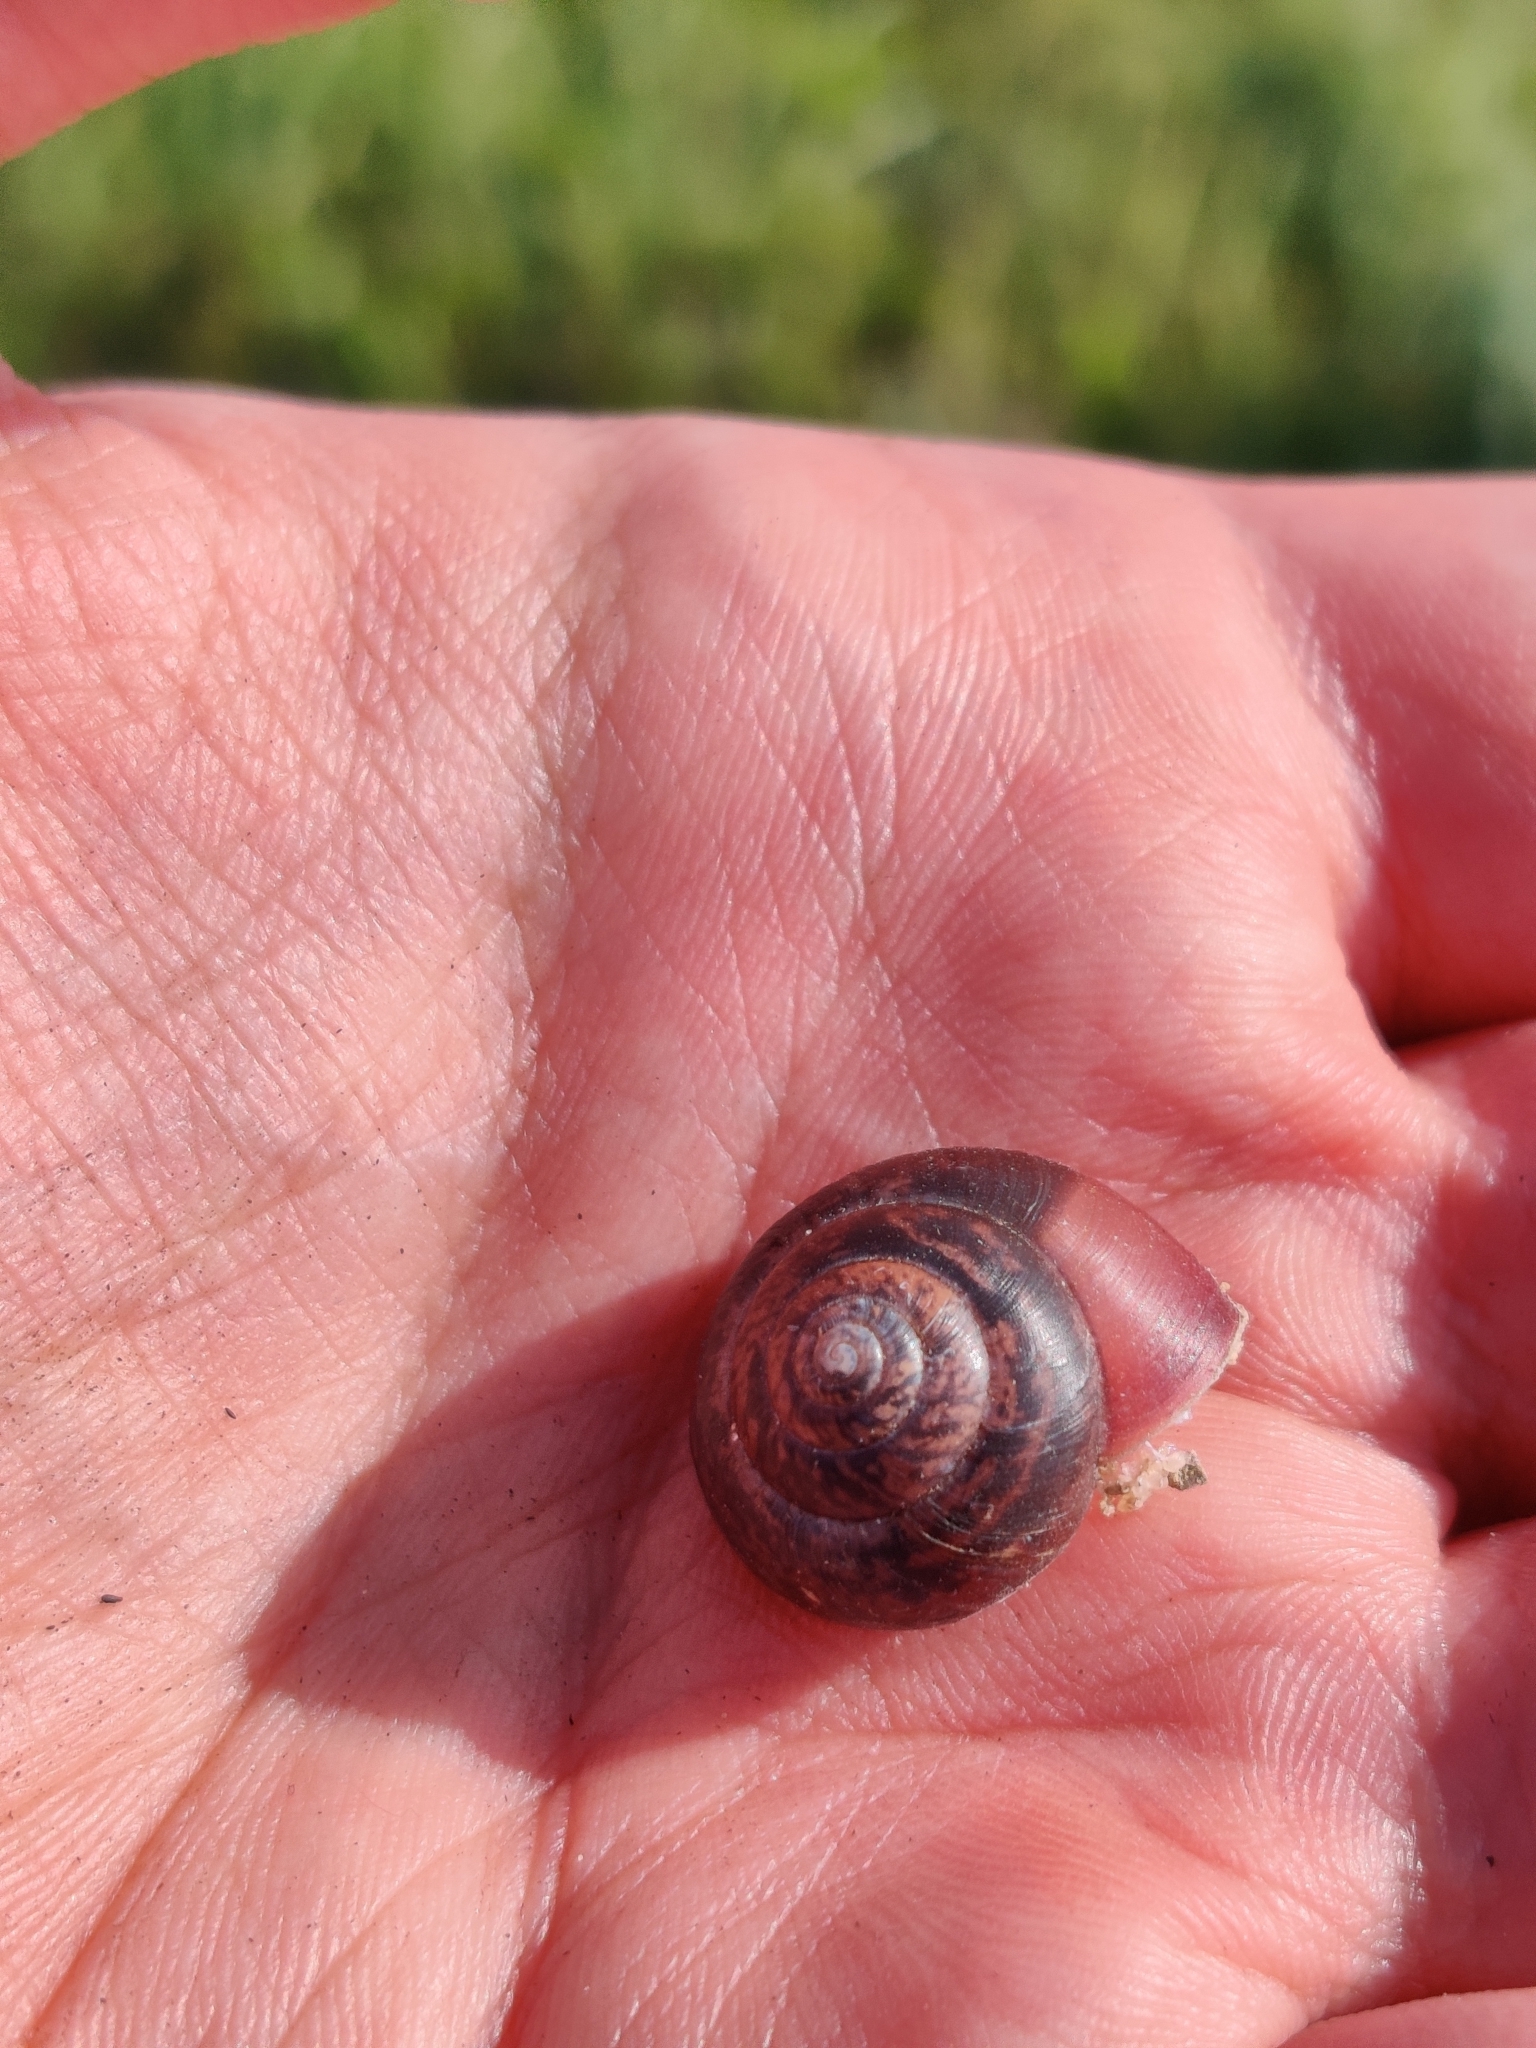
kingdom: Animalia
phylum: Mollusca
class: Gastropoda
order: Stylommatophora
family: Camaenidae
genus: Fruticicola
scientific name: Fruticicola fruticum
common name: Bush snail
